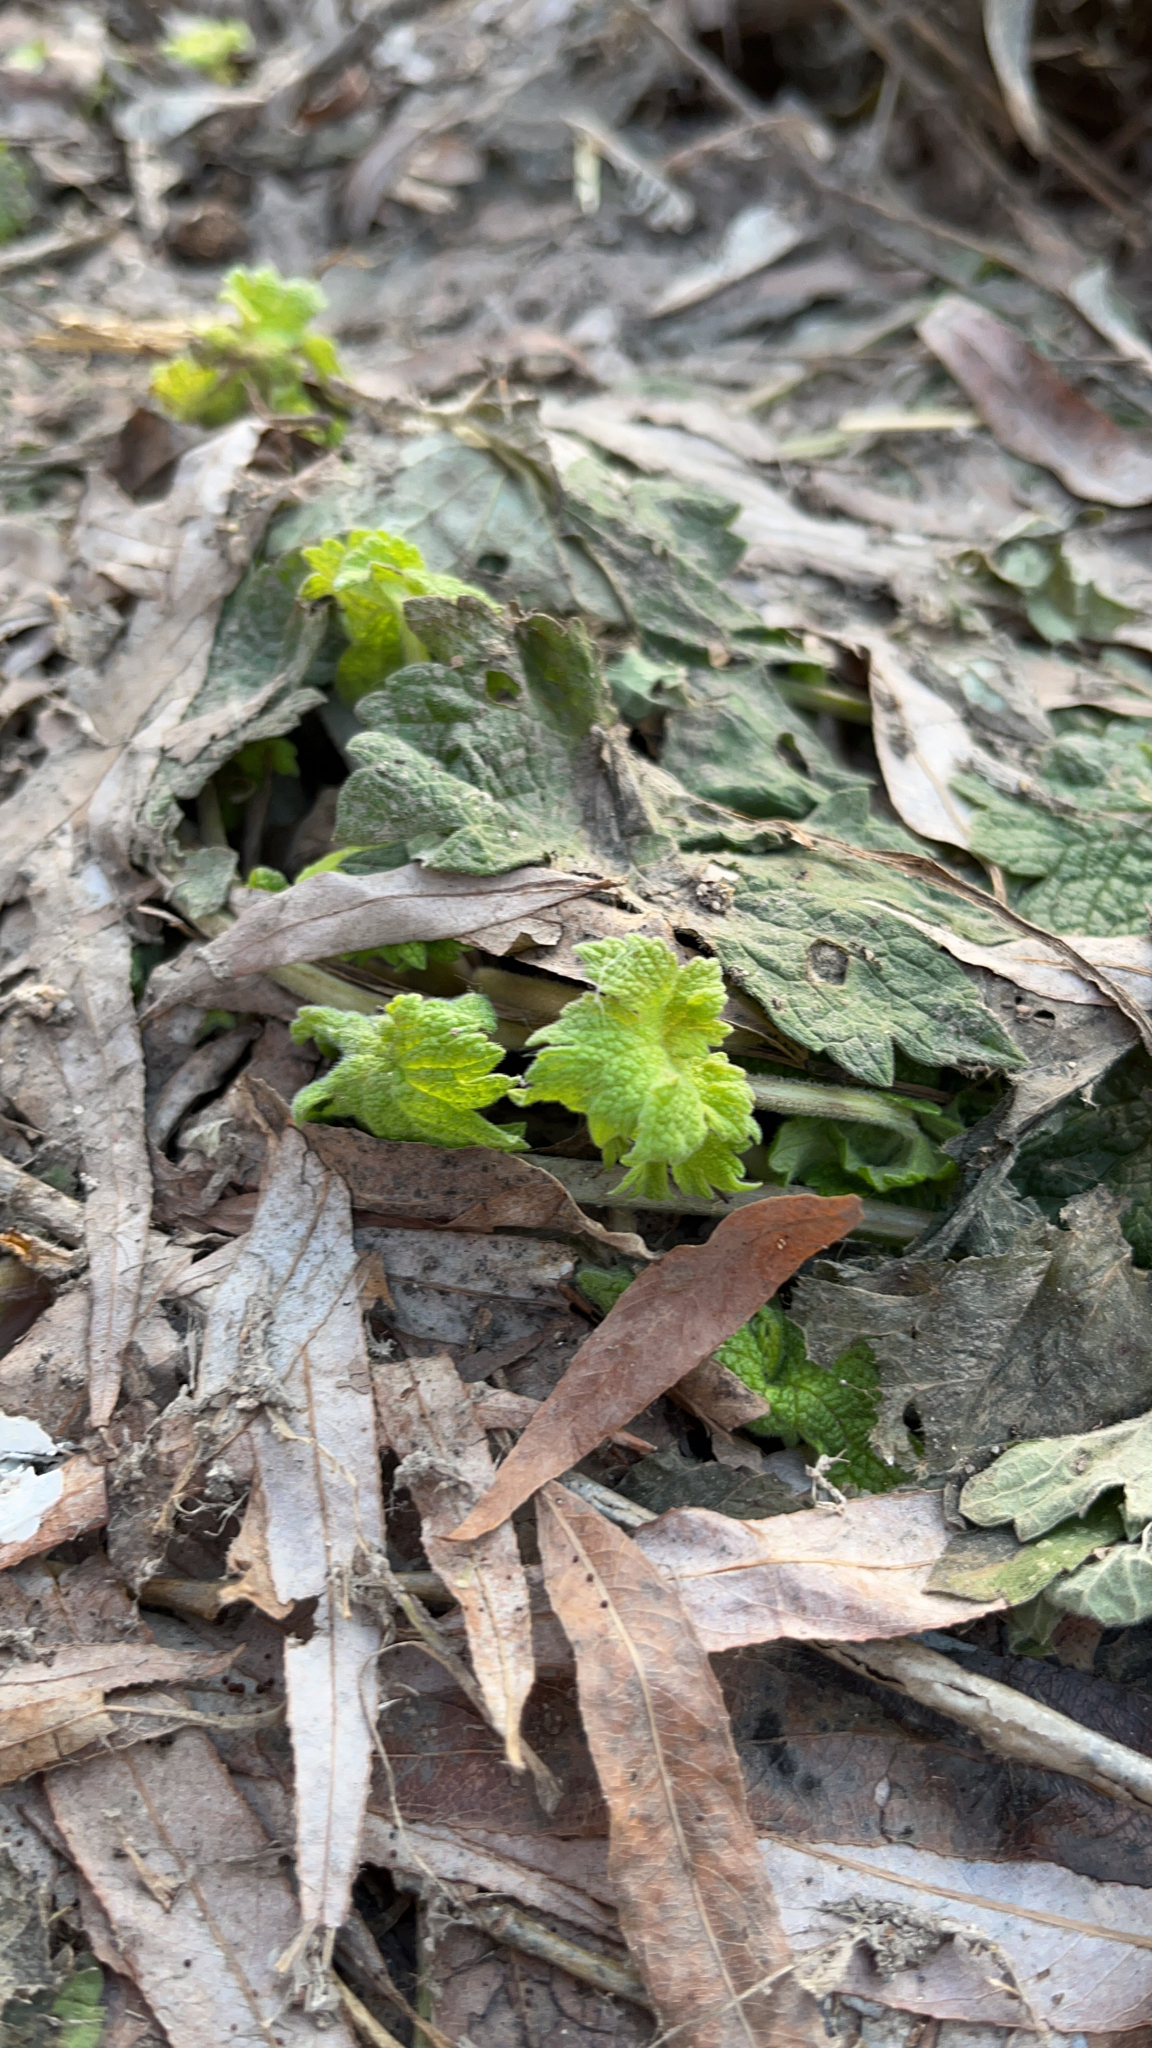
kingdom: Plantae
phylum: Tracheophyta
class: Magnoliopsida
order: Lamiales
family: Lamiaceae
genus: Leonurus
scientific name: Leonurus cardiaca
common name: Motherwort
